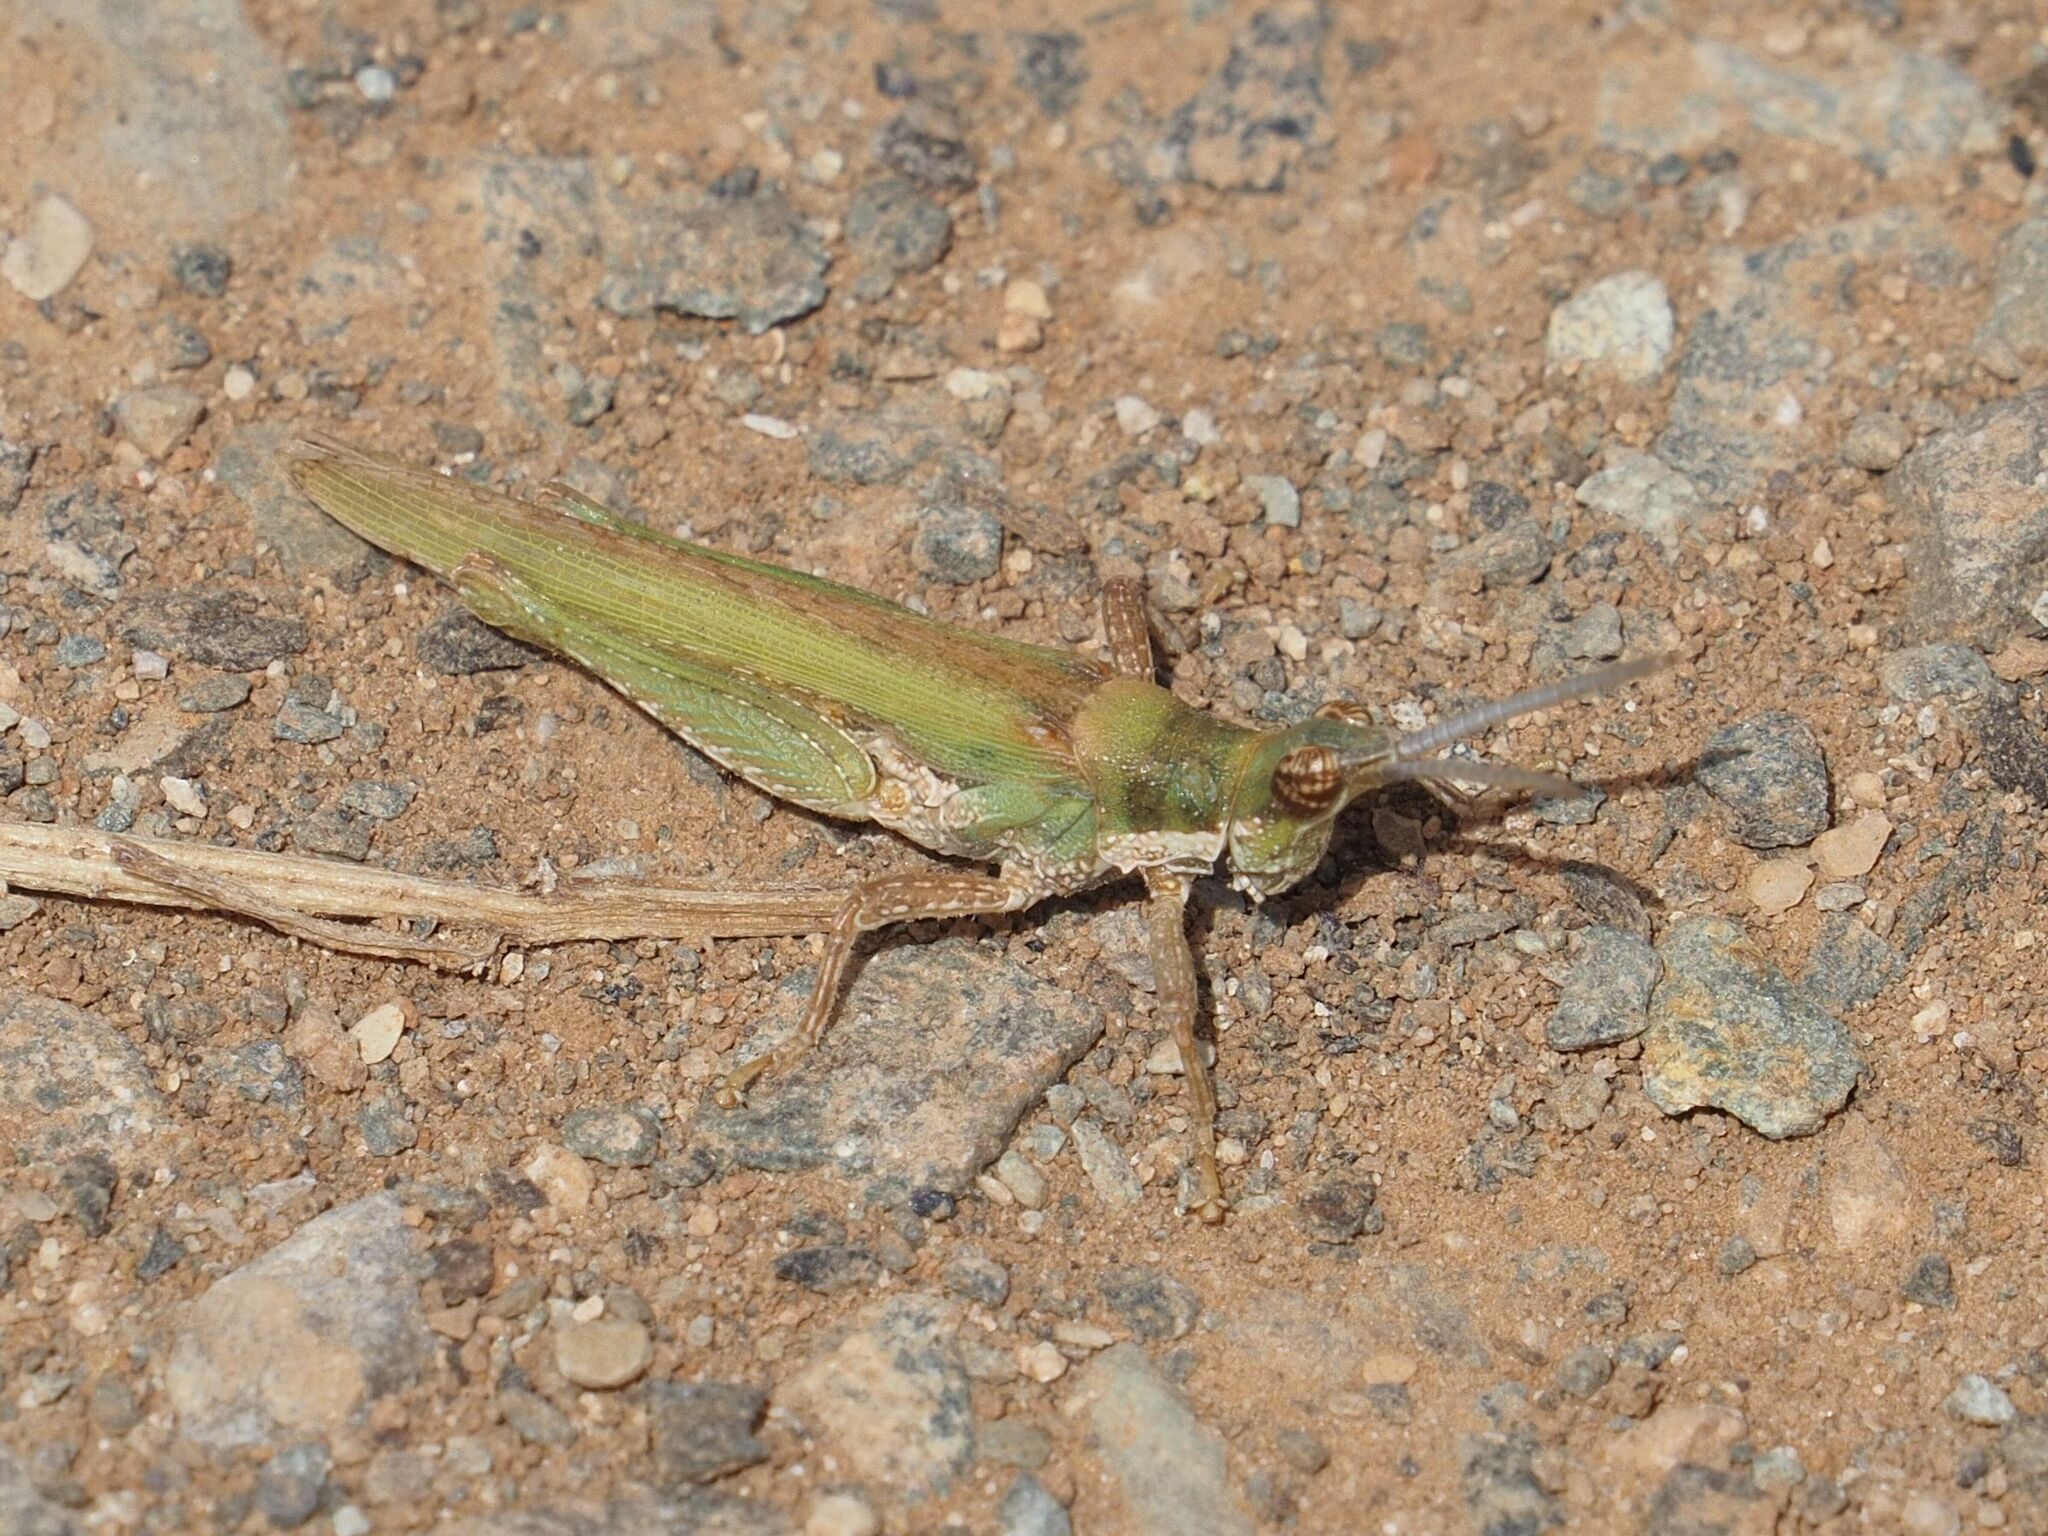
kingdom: Animalia
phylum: Arthropoda
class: Insecta
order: Orthoptera
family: Pyrgomorphidae
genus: Pyrgomorpha
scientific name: Pyrgomorpha conica
